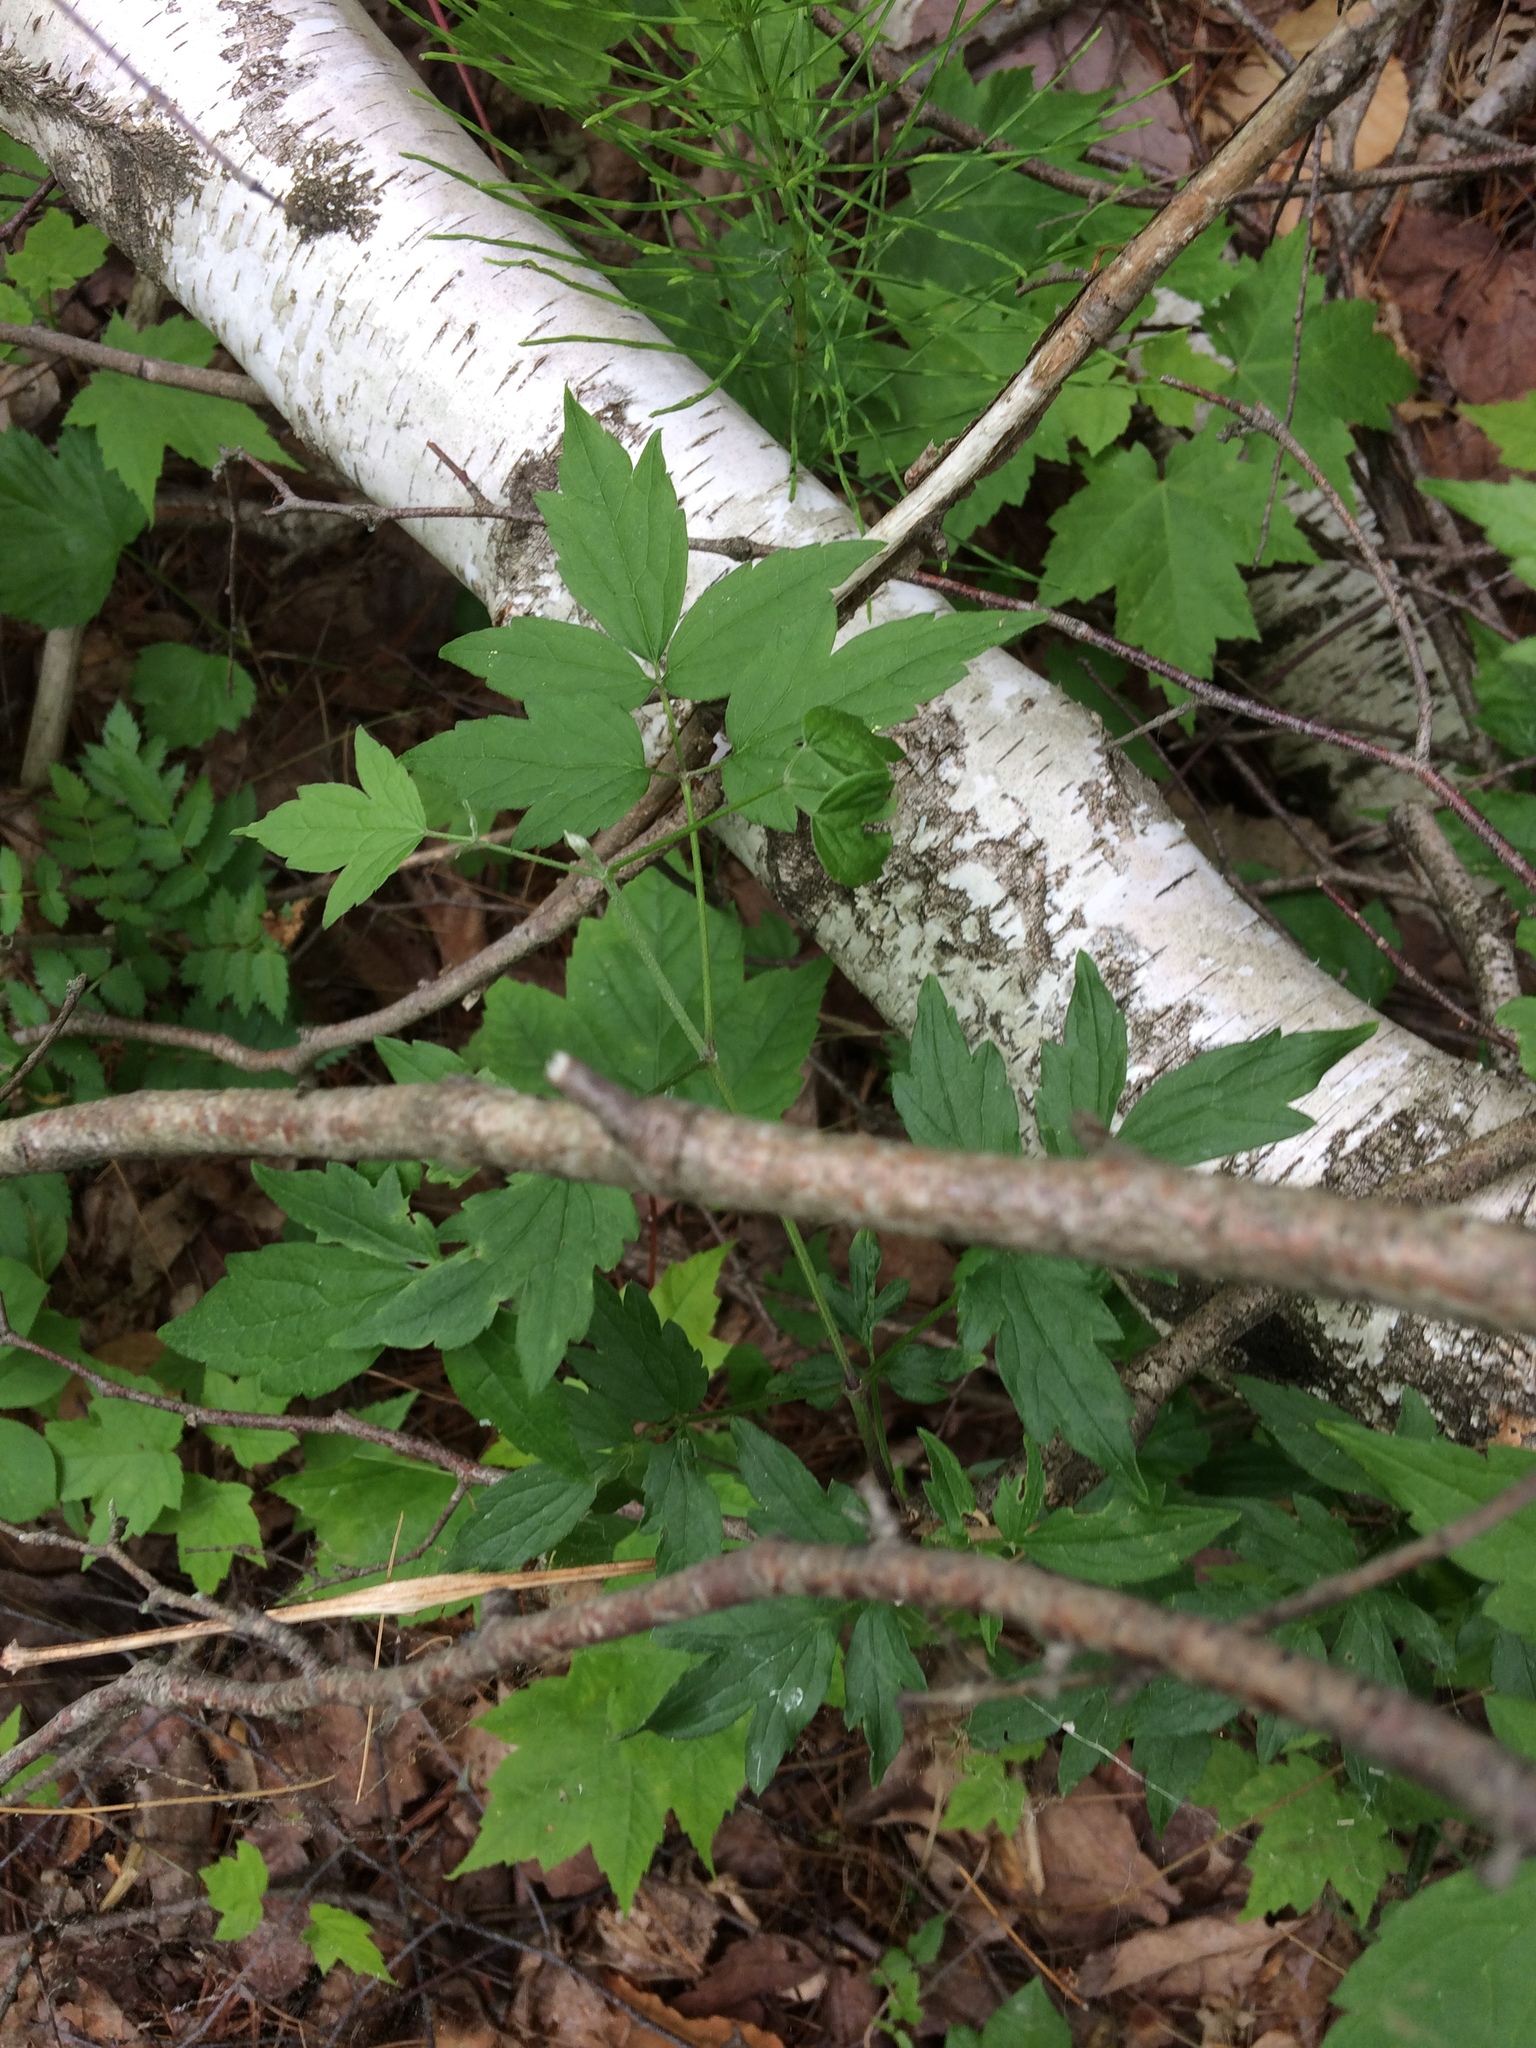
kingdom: Plantae
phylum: Tracheophyta
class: Magnoliopsida
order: Ranunculales
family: Ranunculaceae
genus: Clematis
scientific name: Clematis virginiana
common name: Virgin's-bower
